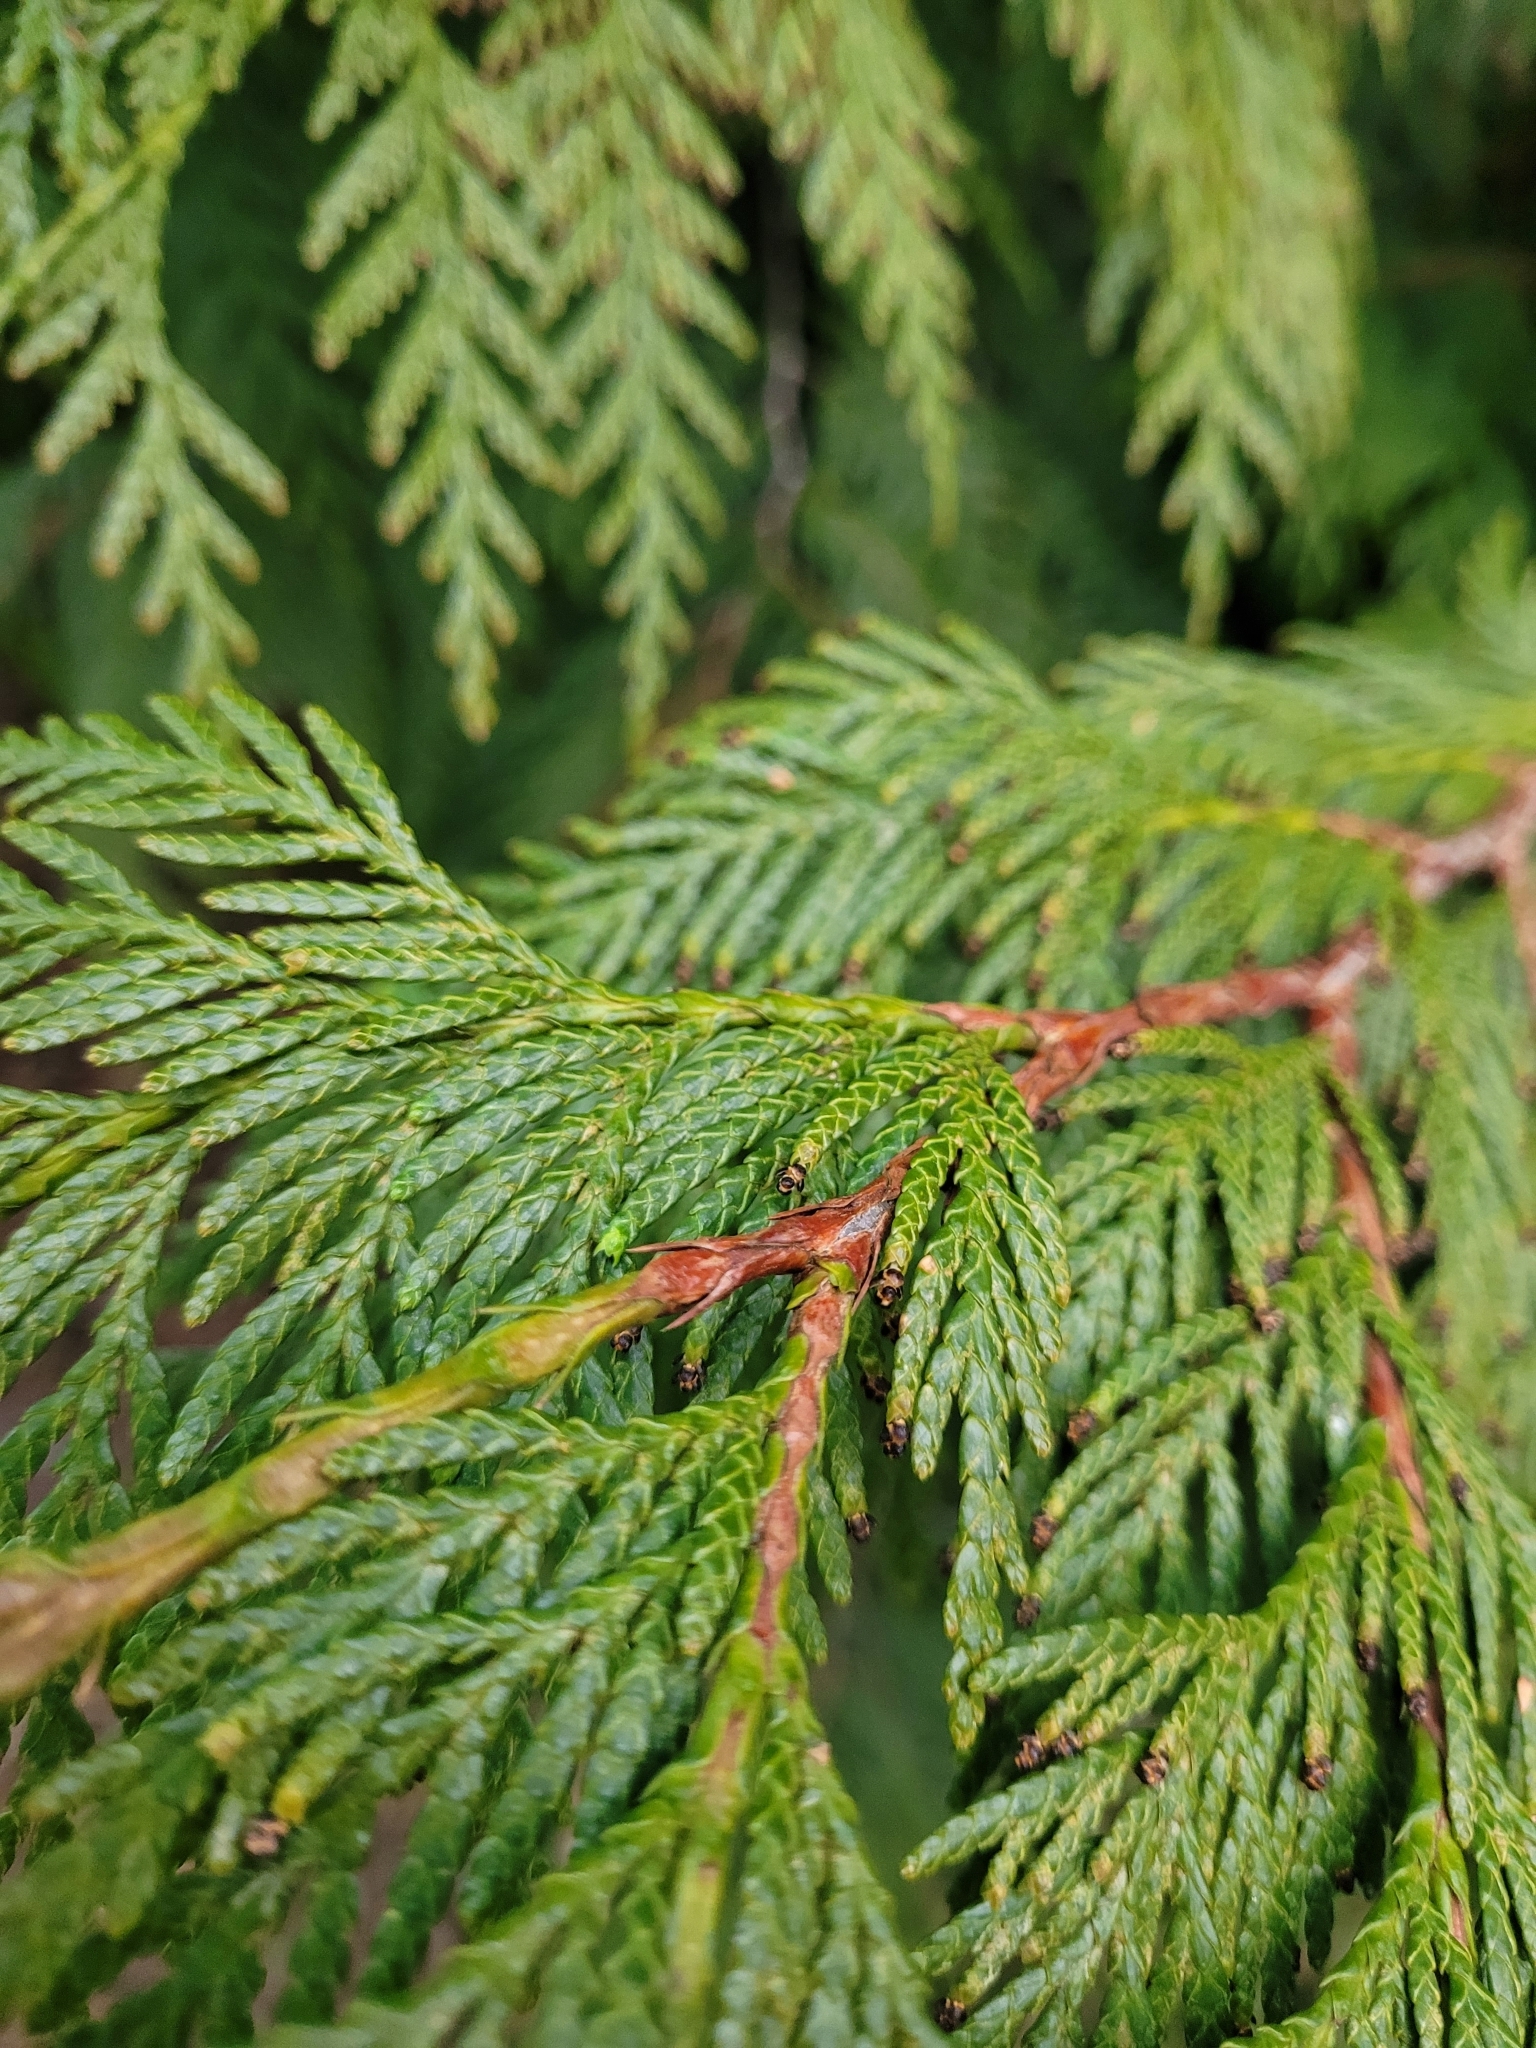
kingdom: Plantae
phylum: Tracheophyta
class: Pinopsida
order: Pinales
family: Cupressaceae
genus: Thuja
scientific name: Thuja plicata
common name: Western red-cedar
